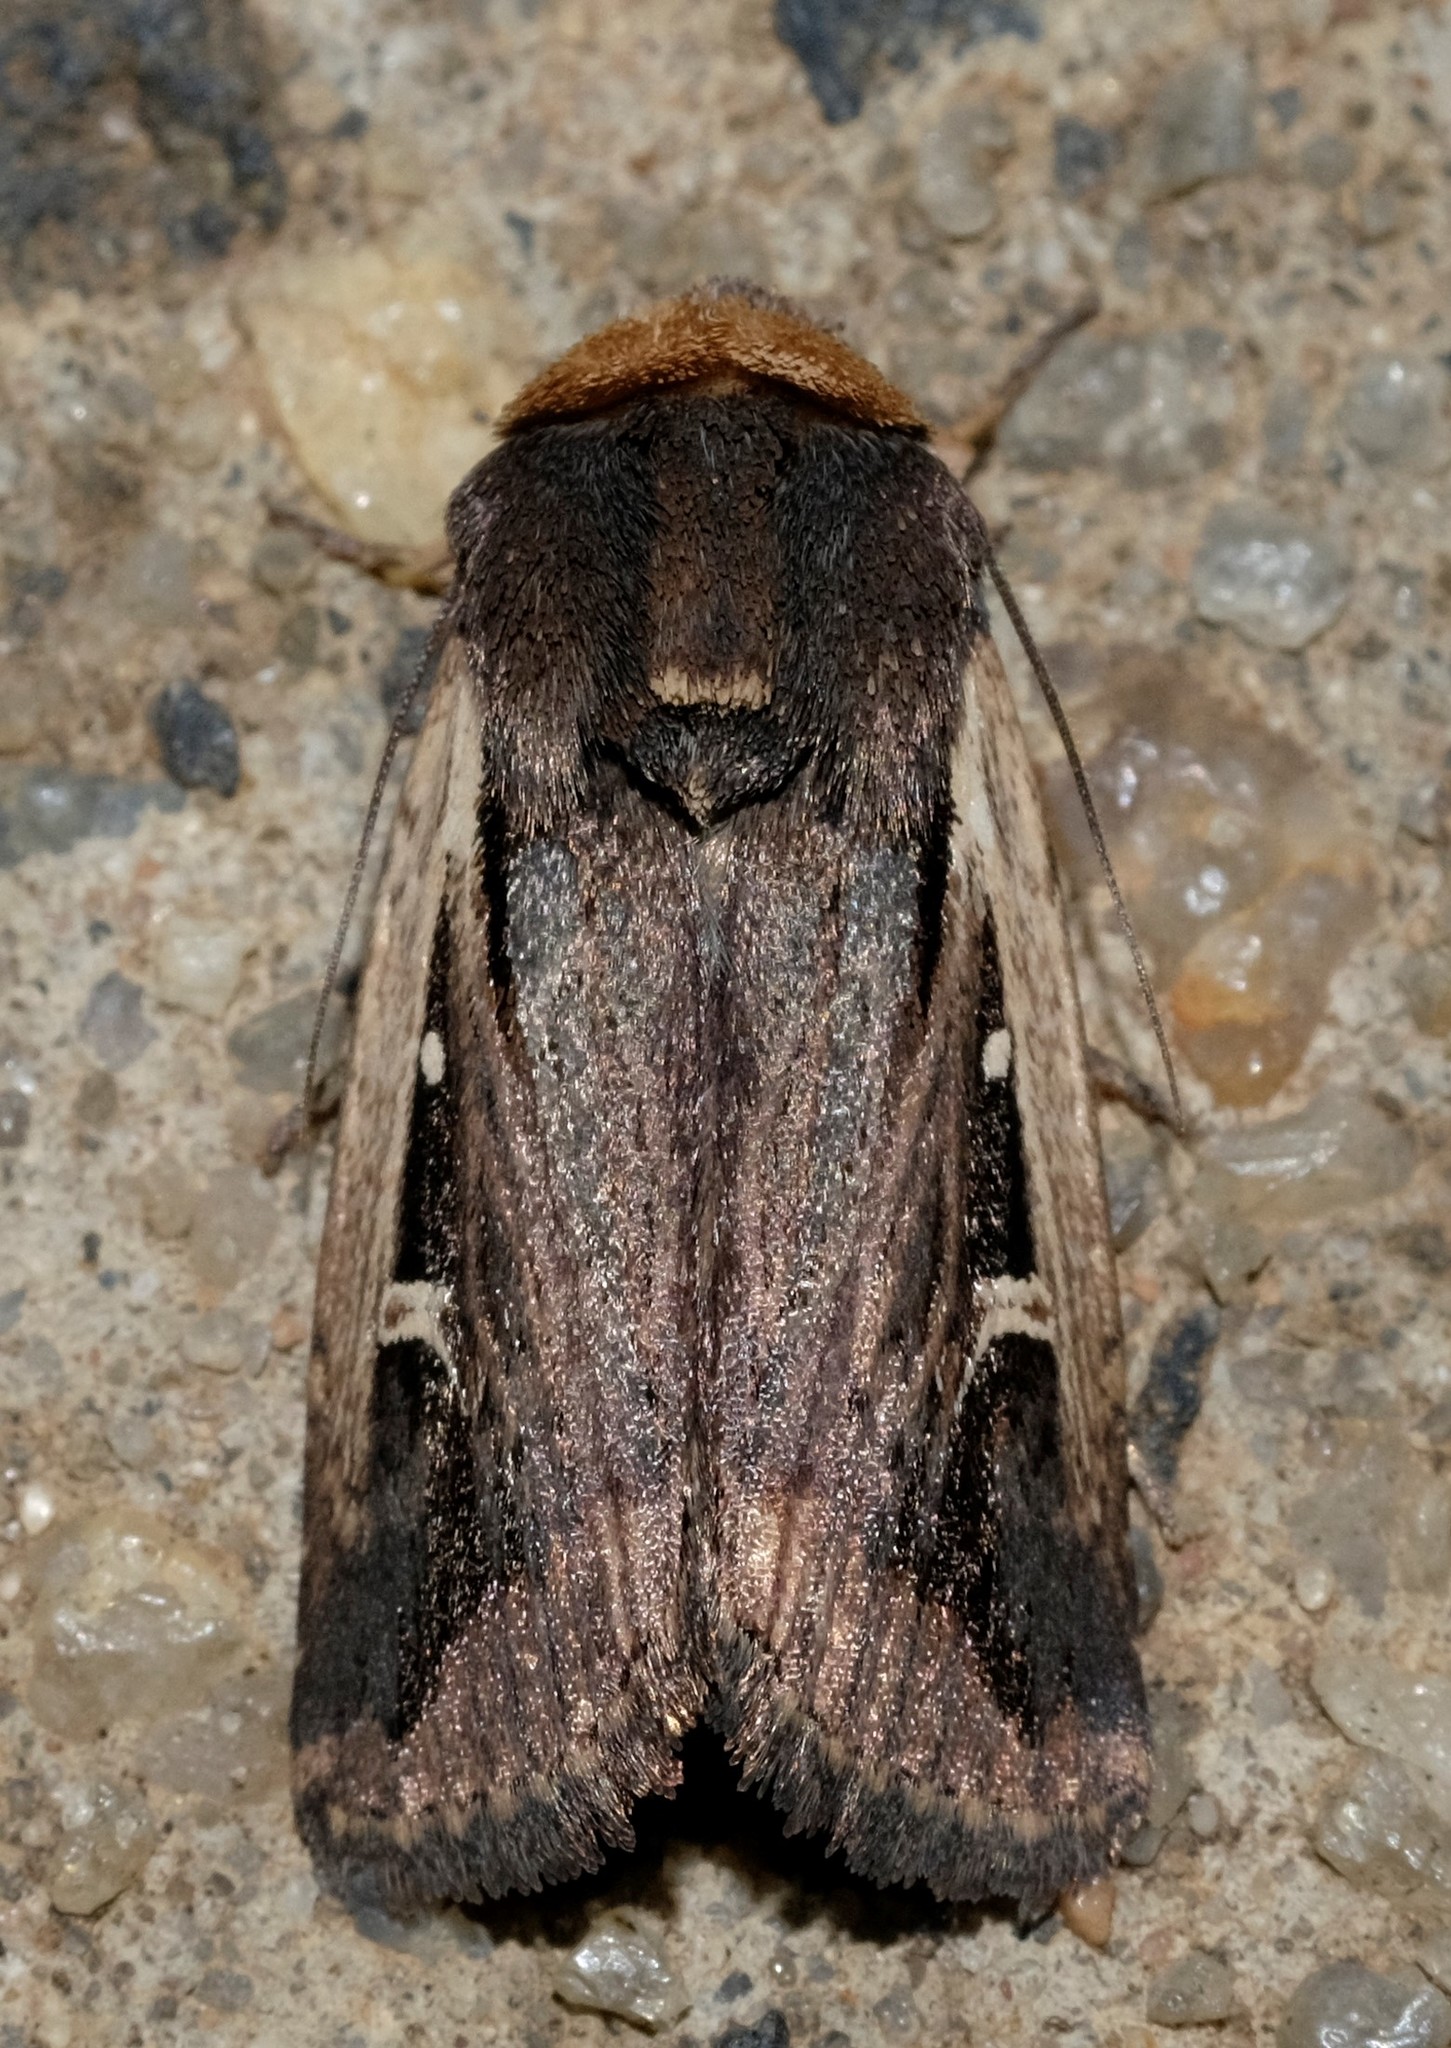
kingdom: Animalia
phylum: Arthropoda
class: Insecta
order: Lepidoptera
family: Noctuidae
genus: Proteuxoa
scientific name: Proteuxoa tortisigna
